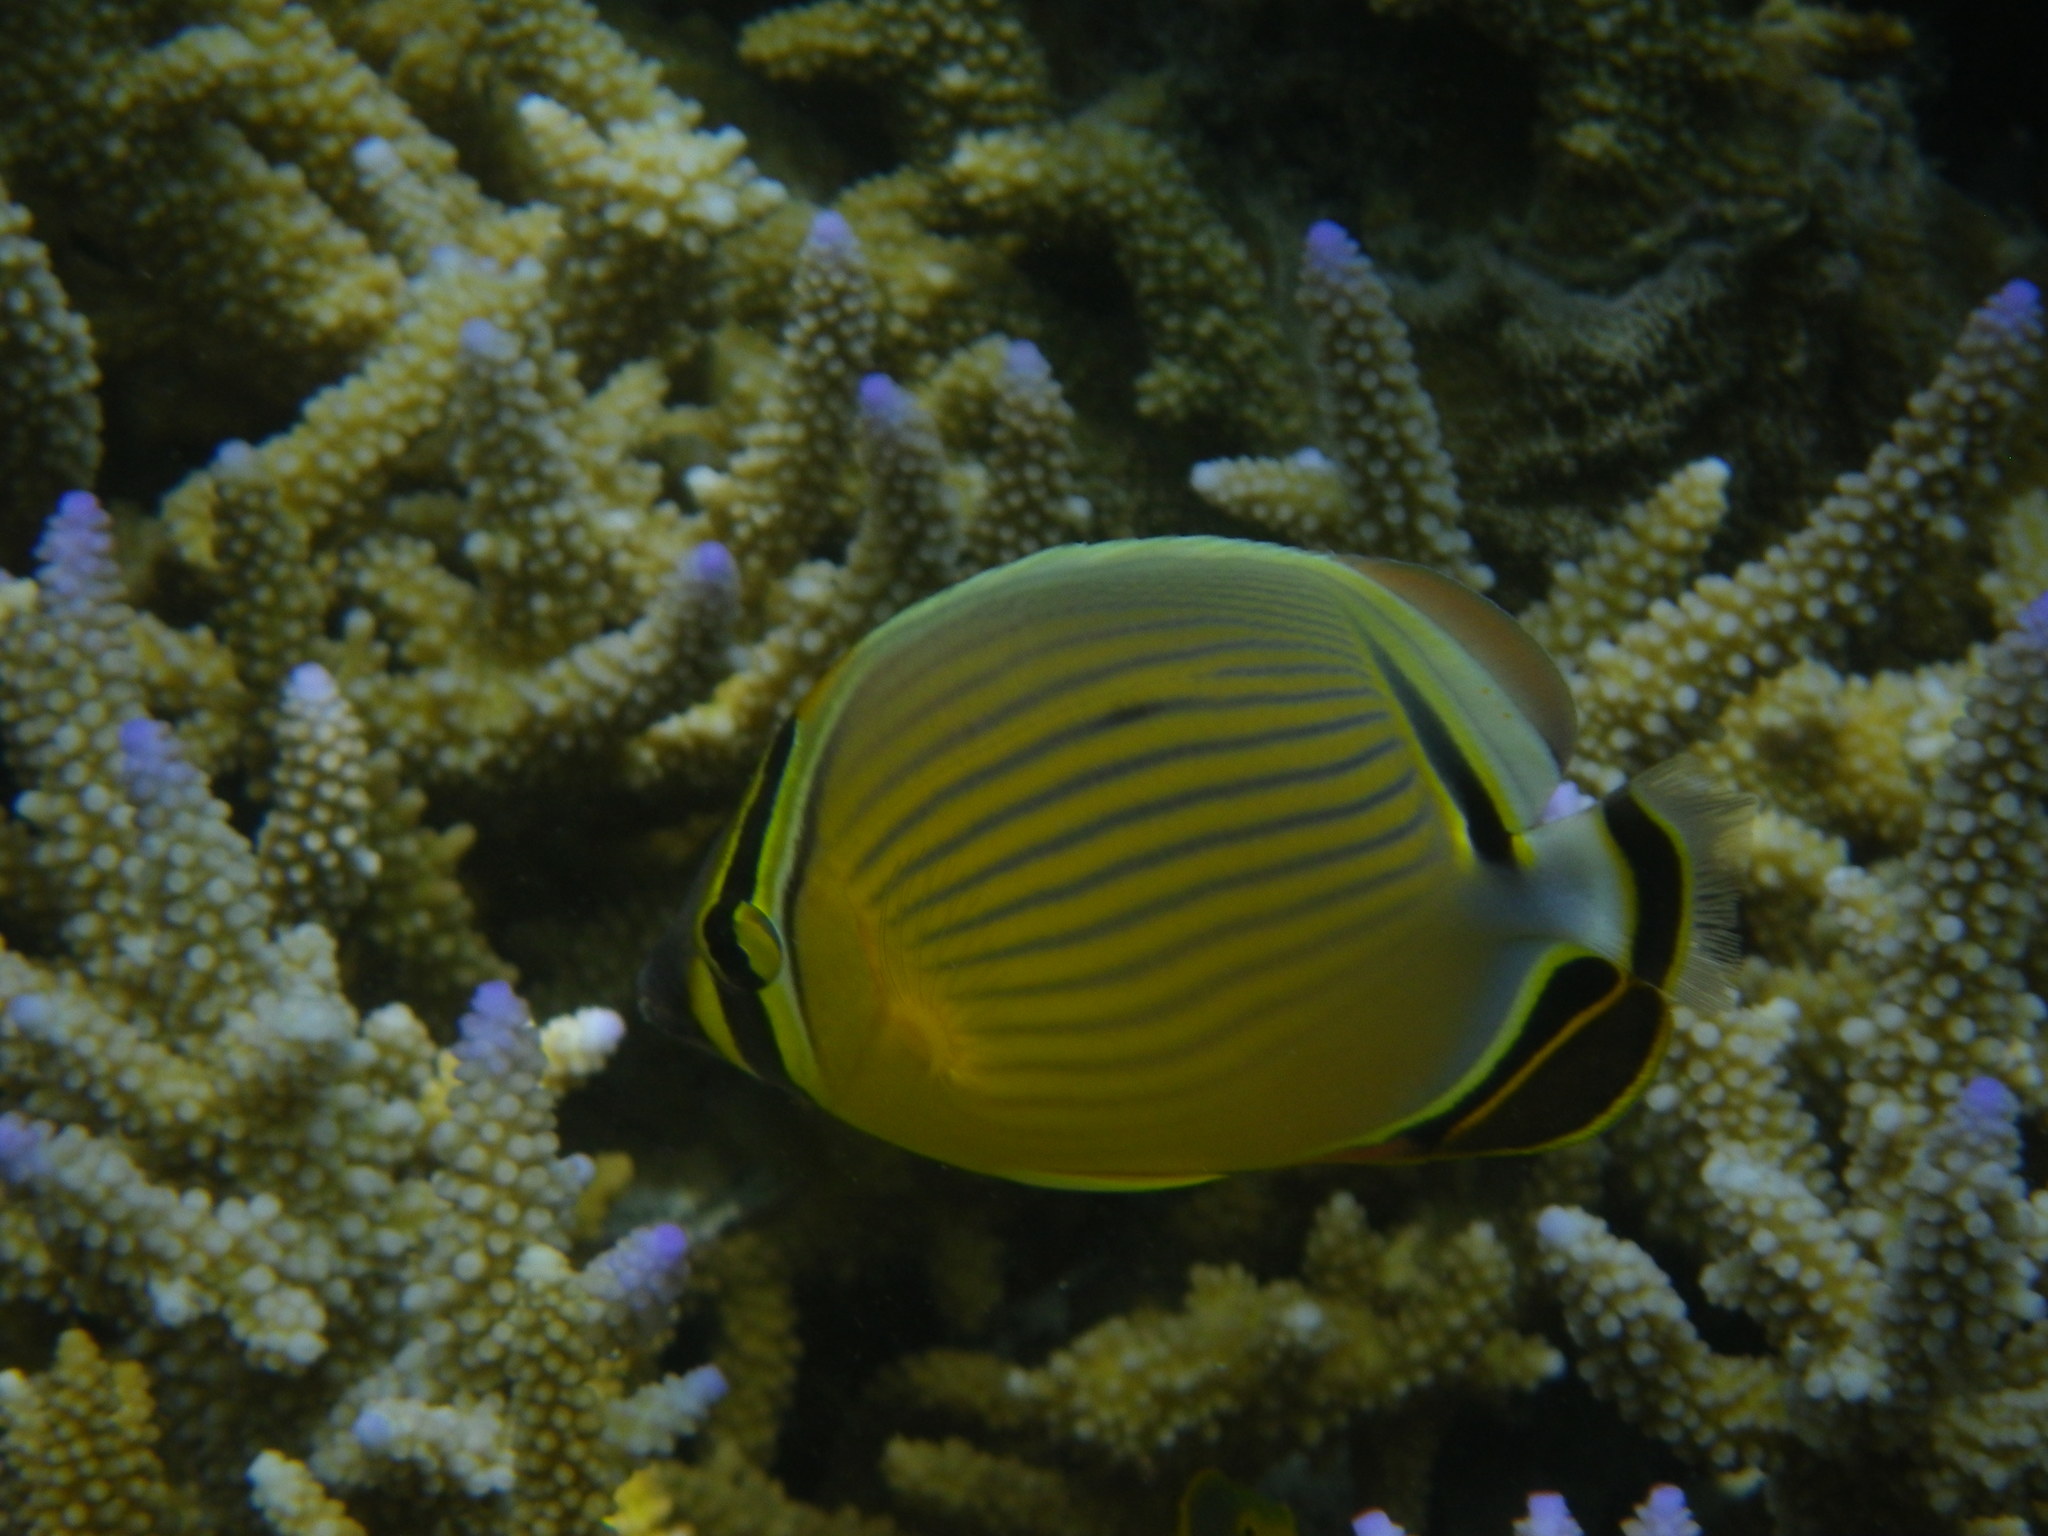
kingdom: Animalia
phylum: Chordata
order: Perciformes
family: Chaetodontidae
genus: Chaetodon
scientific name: Chaetodon lunulatus
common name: Redfin butterflyfish
